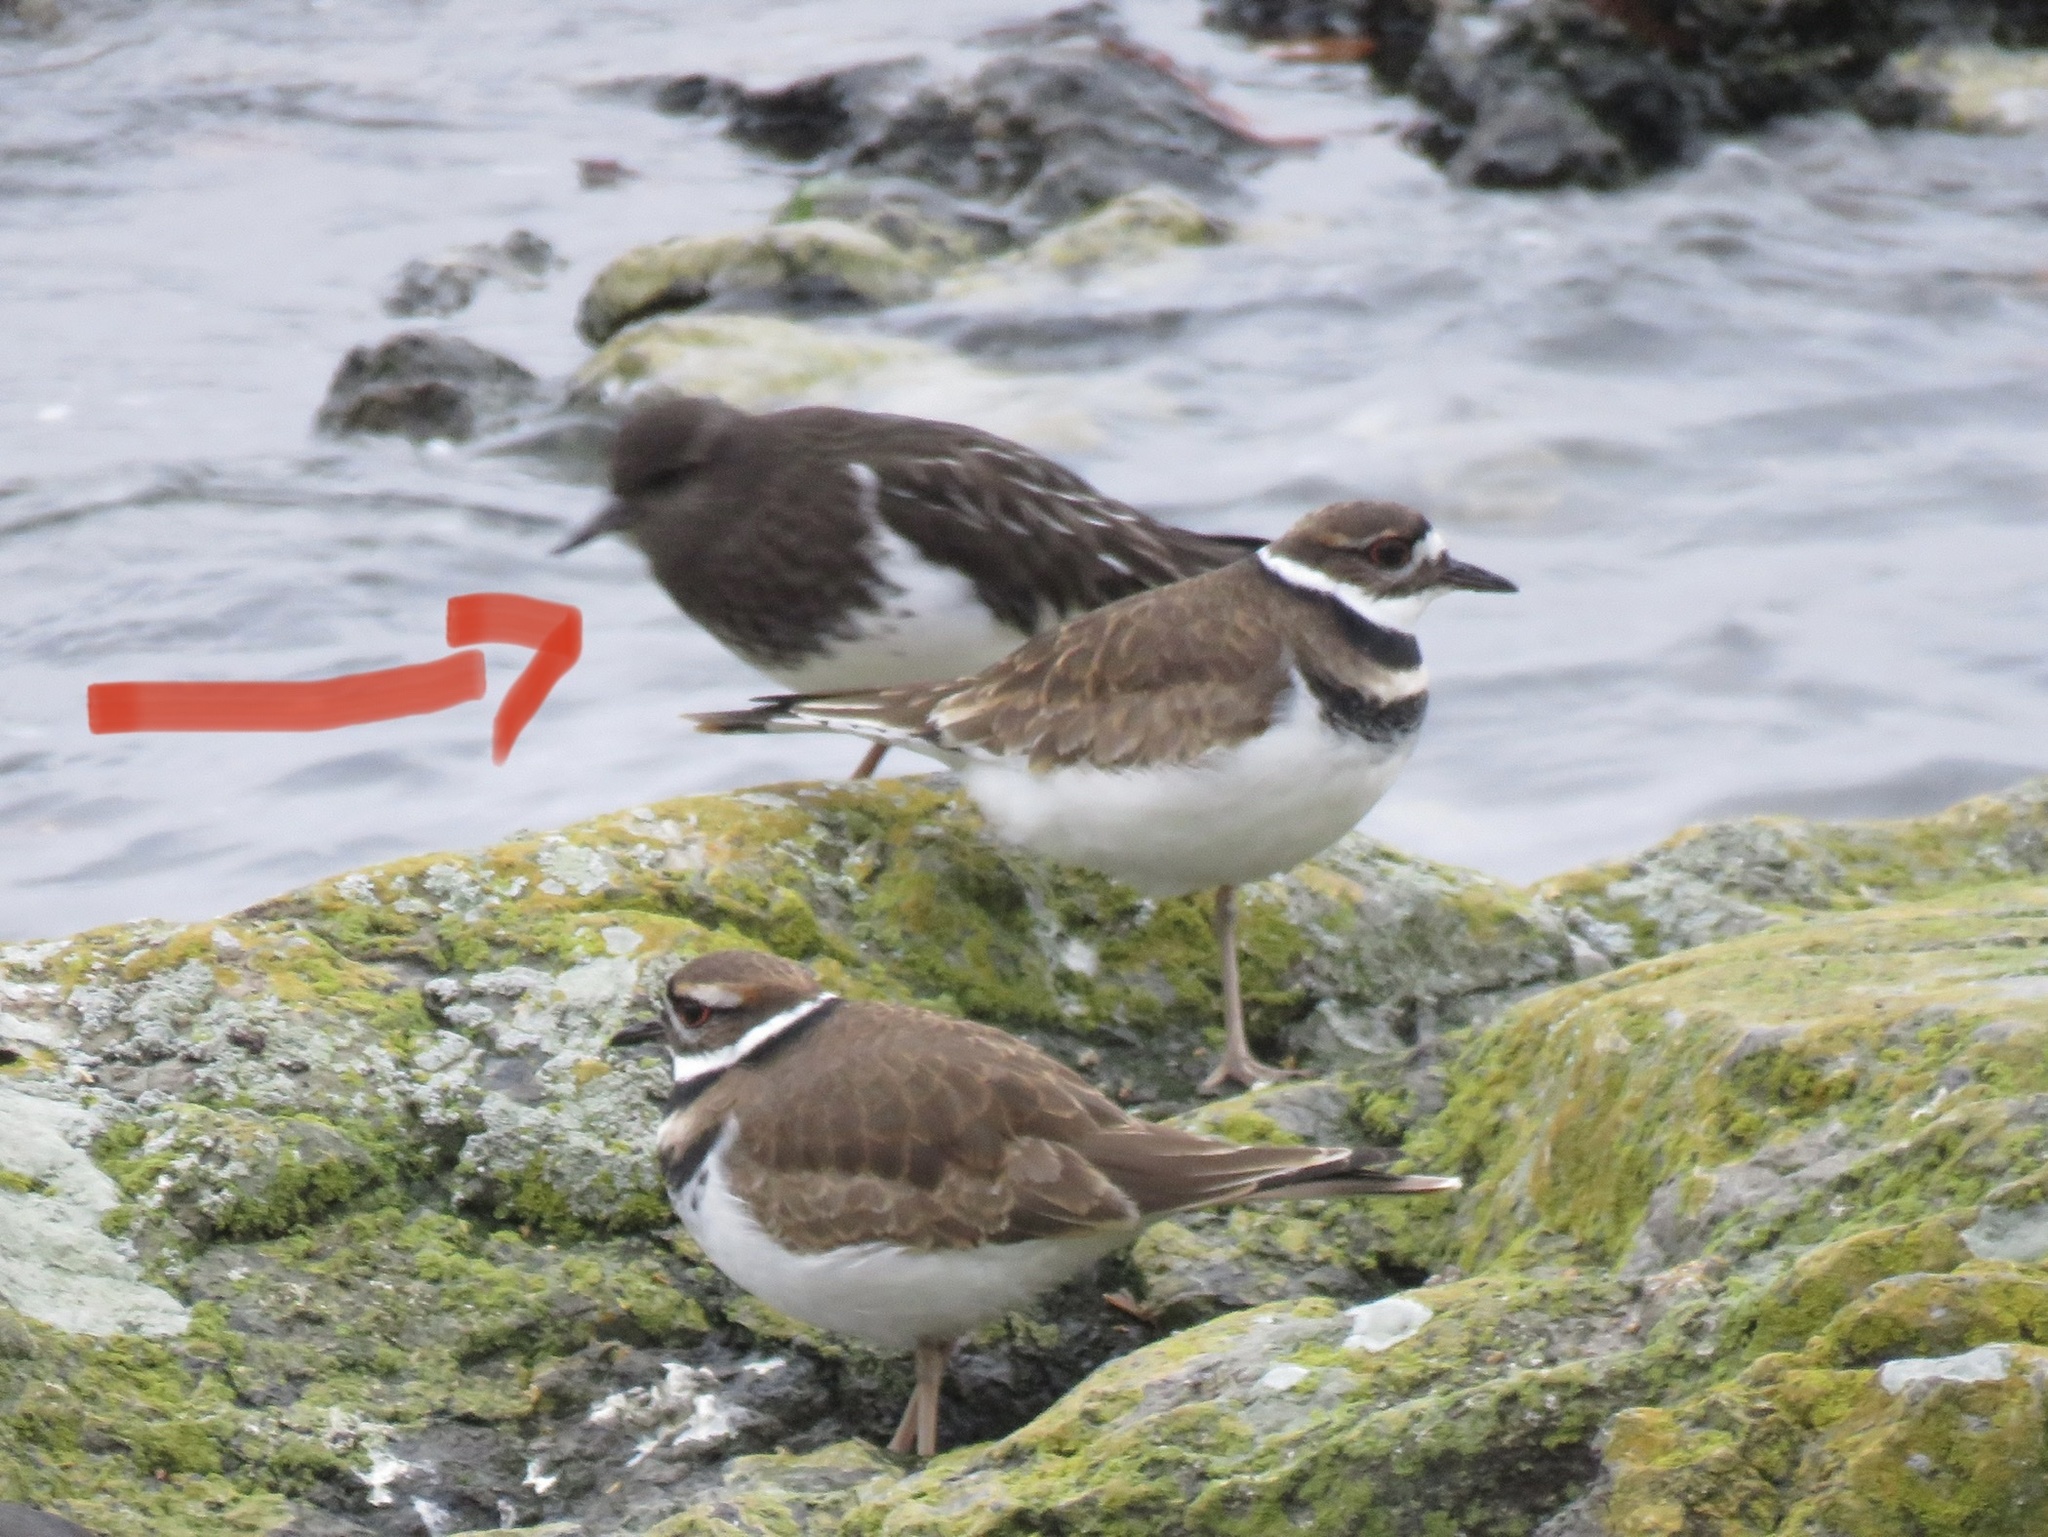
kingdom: Animalia
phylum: Chordata
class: Aves
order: Charadriiformes
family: Scolopacidae
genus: Arenaria
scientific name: Arenaria melanocephala
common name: Black turnstone
